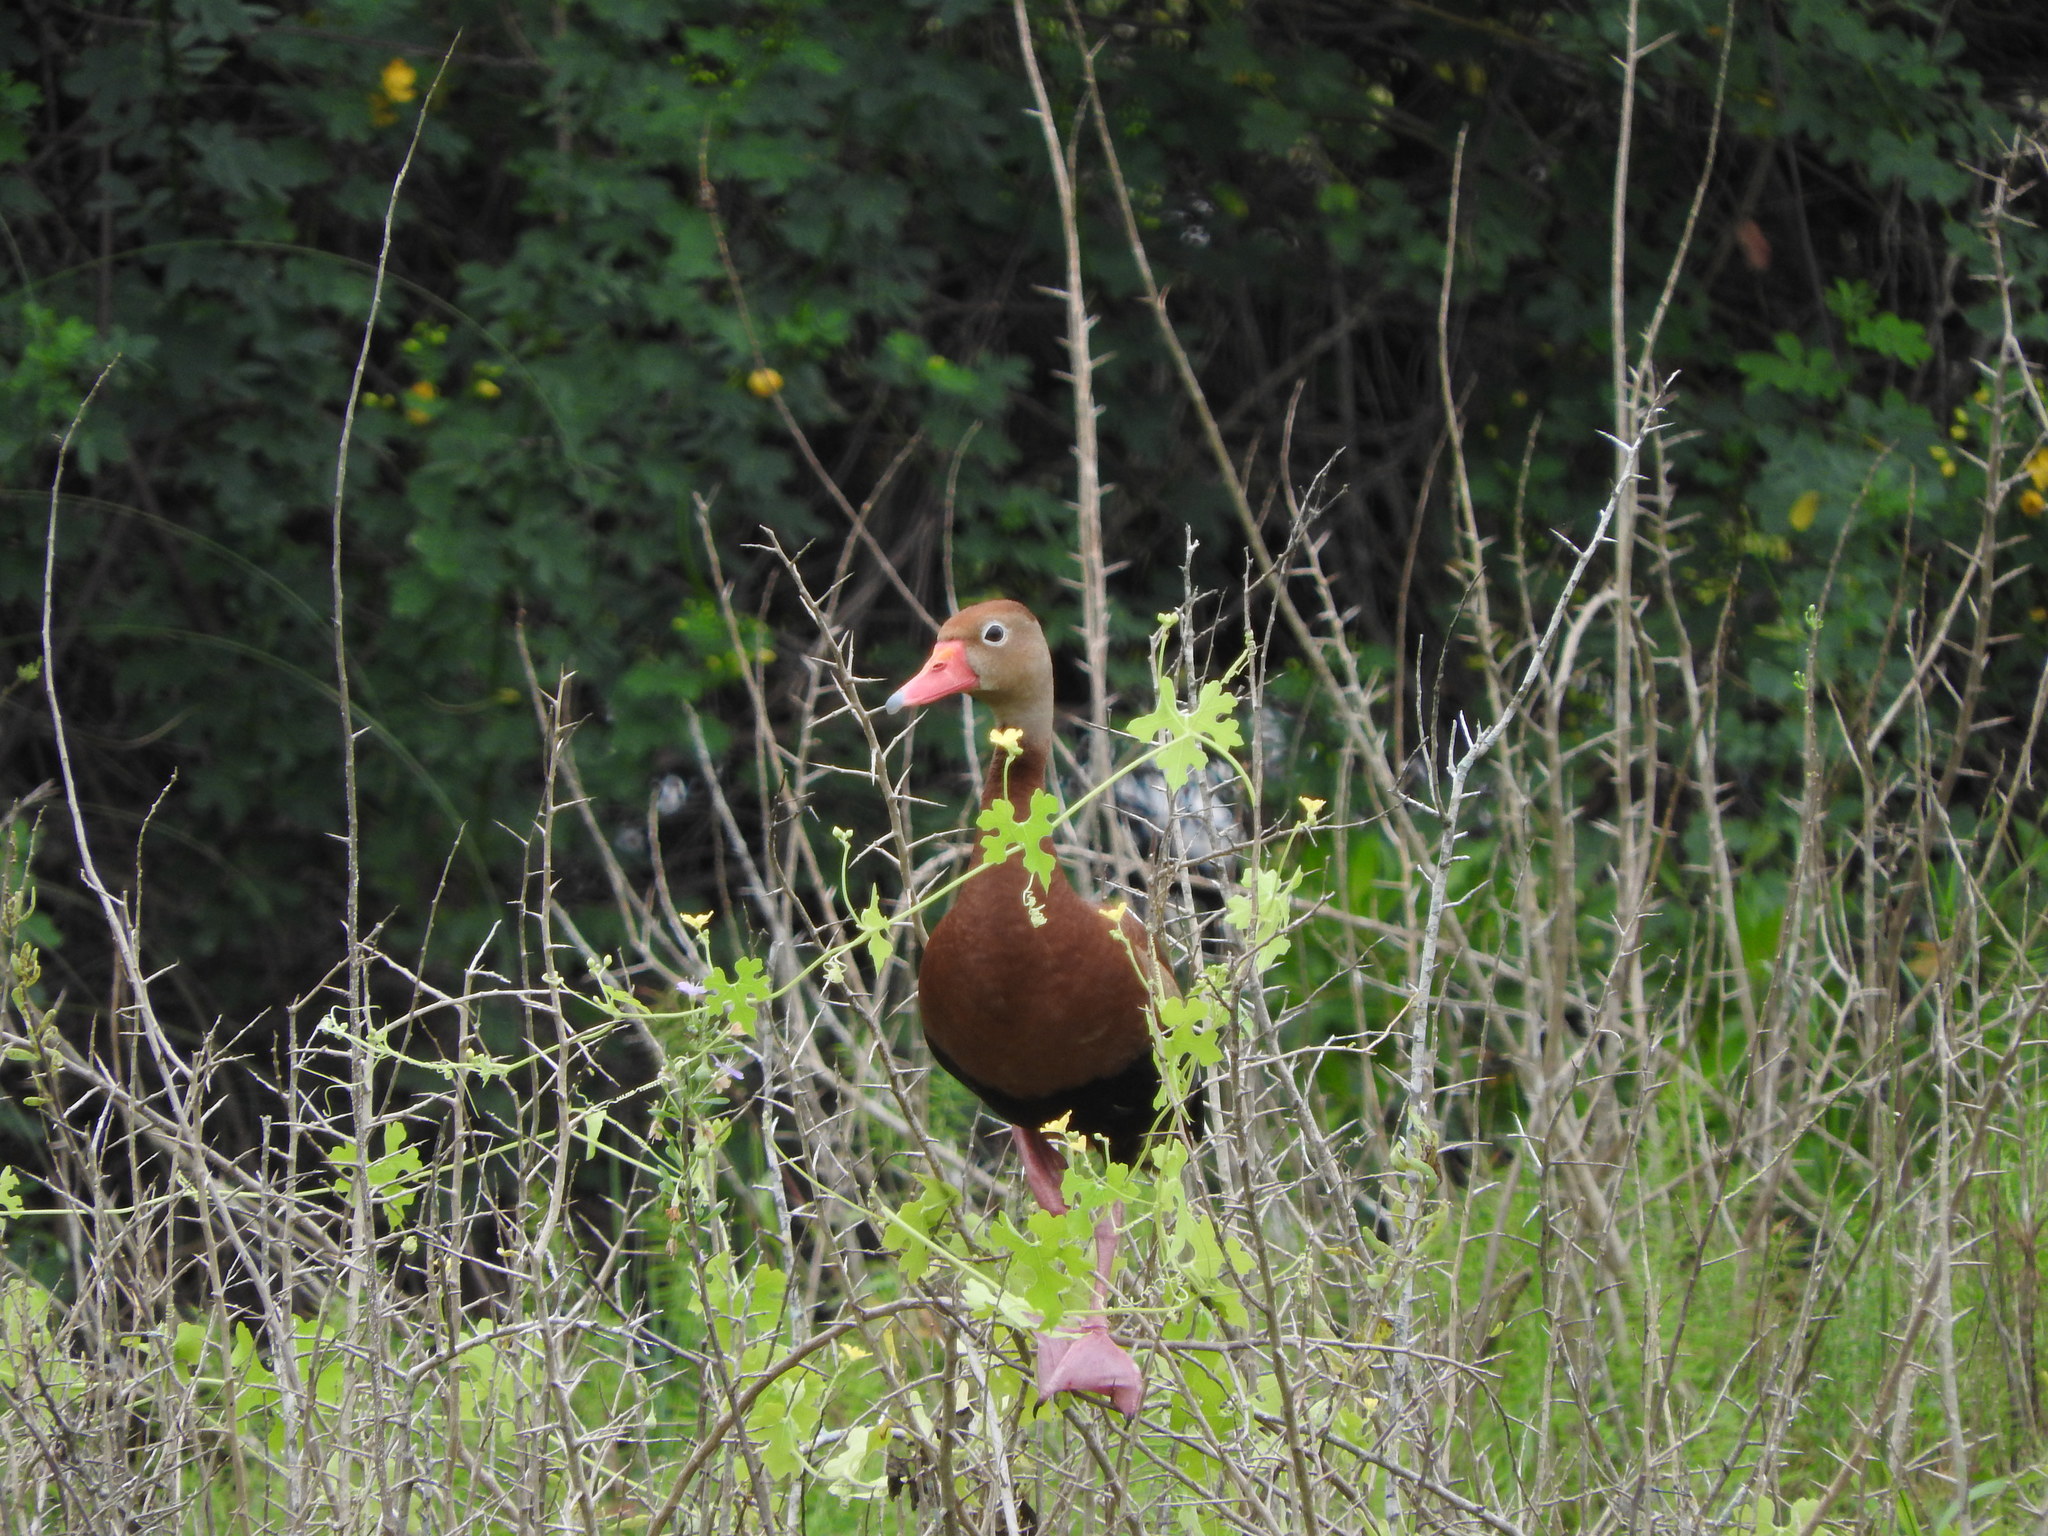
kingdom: Animalia
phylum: Chordata
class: Aves
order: Anseriformes
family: Anatidae
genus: Dendrocygna
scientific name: Dendrocygna autumnalis
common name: Black-bellied whistling duck
